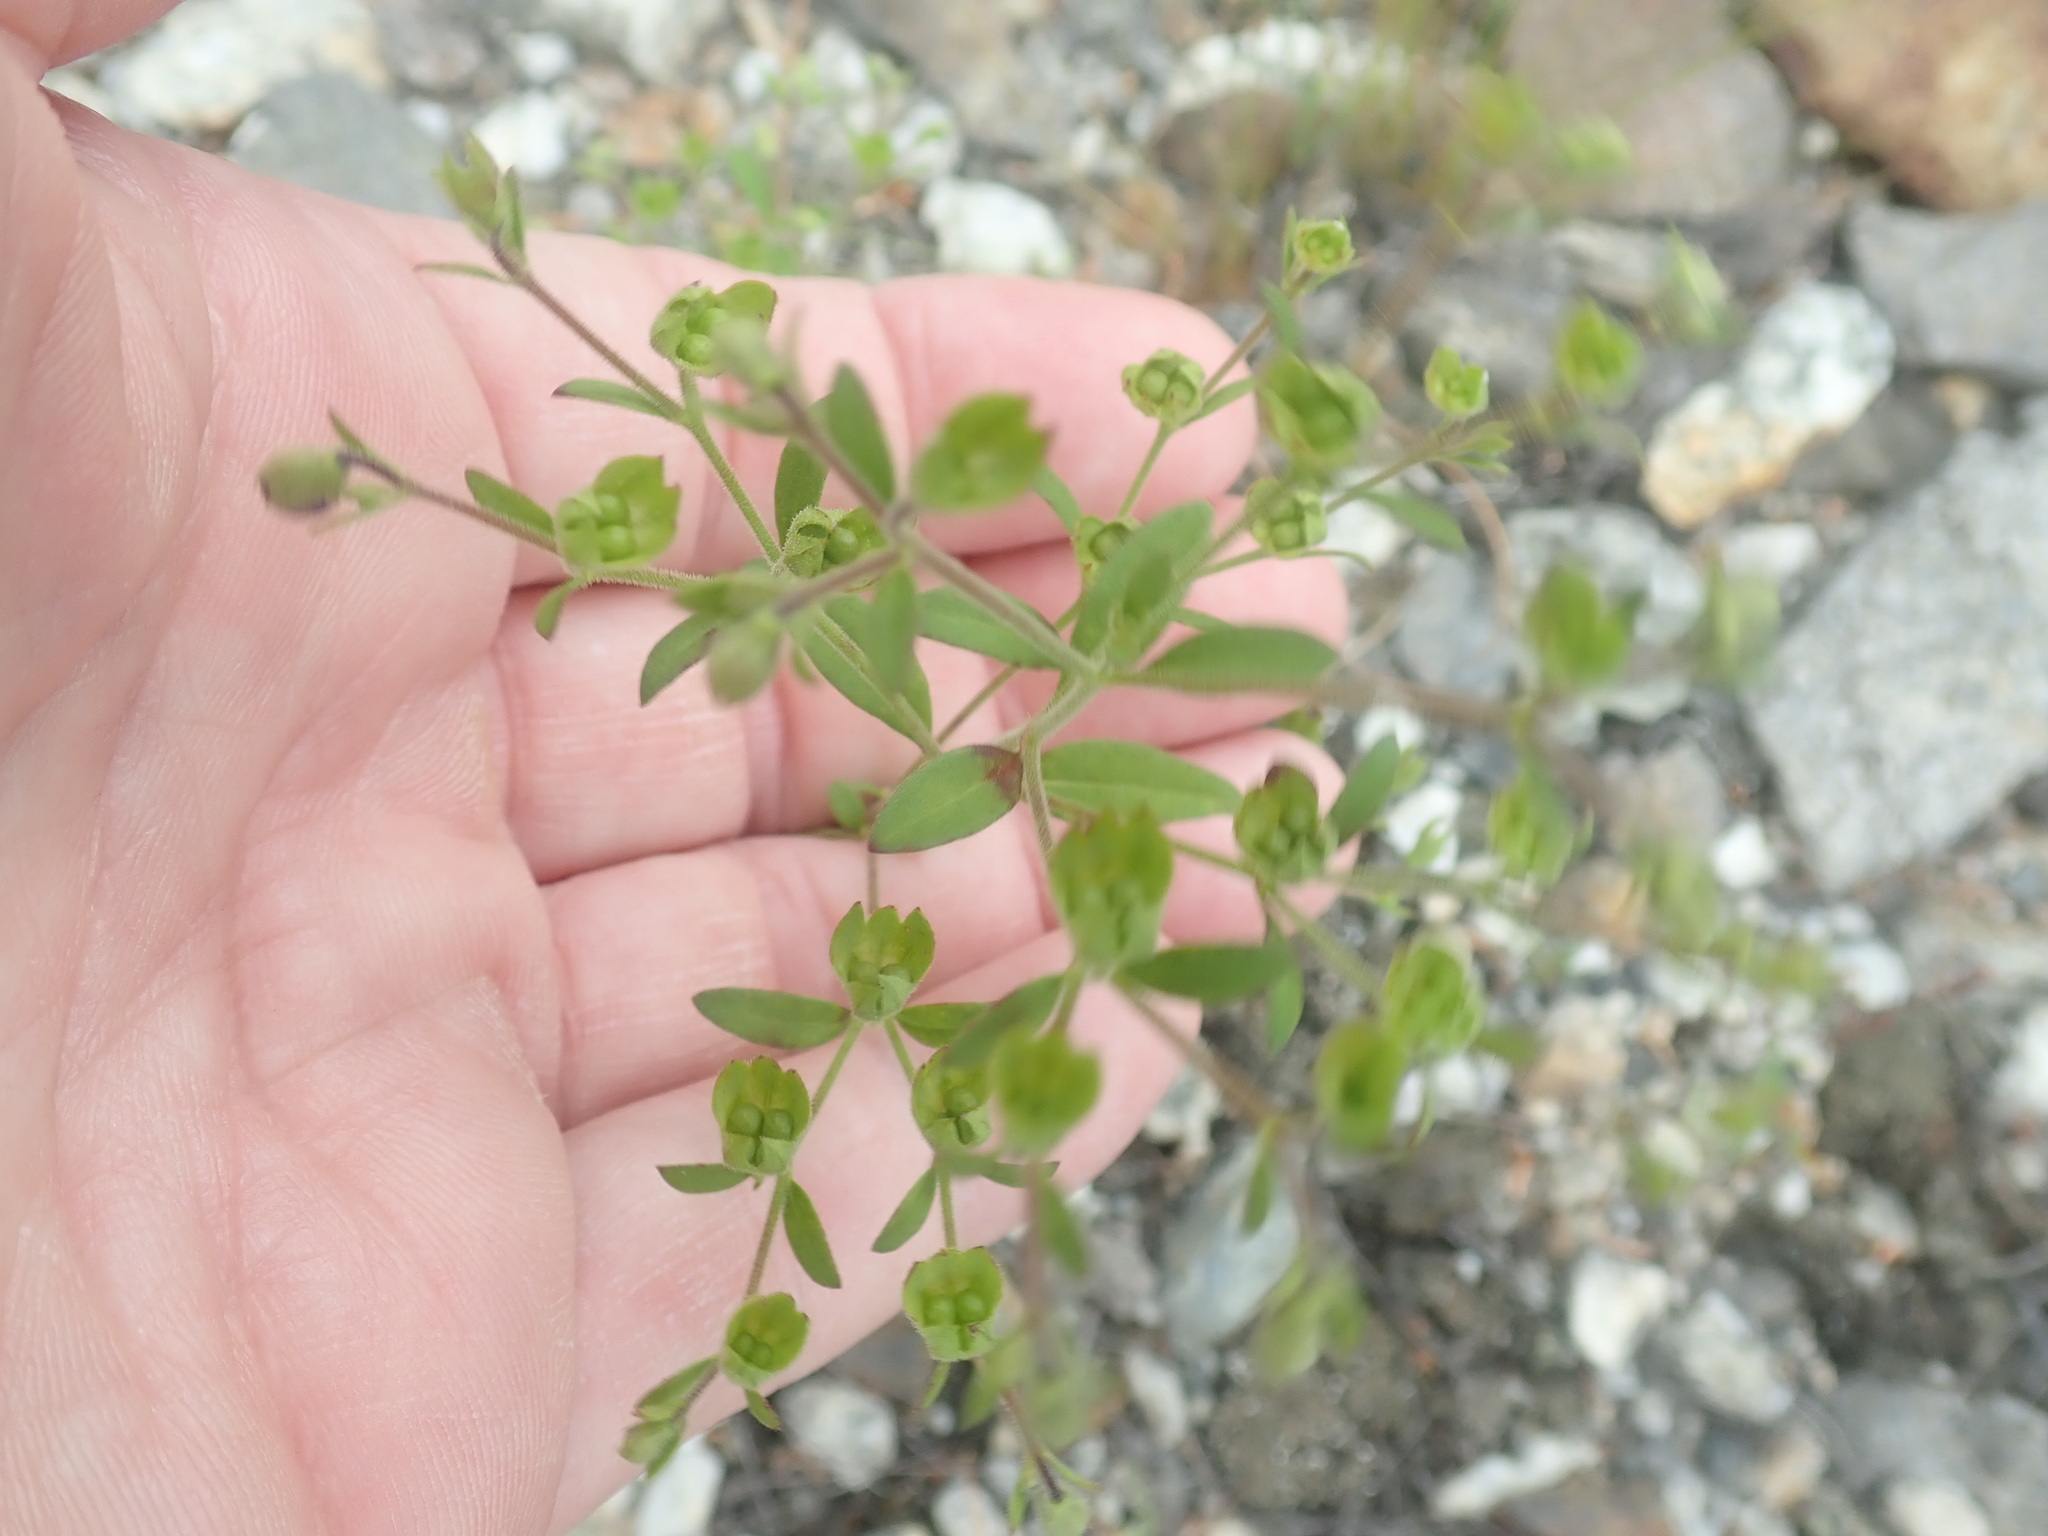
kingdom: Plantae
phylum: Tracheophyta
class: Magnoliopsida
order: Lamiales
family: Lamiaceae
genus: Trichostema
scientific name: Trichostema dichotomum
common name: Bastard pennyroyal
